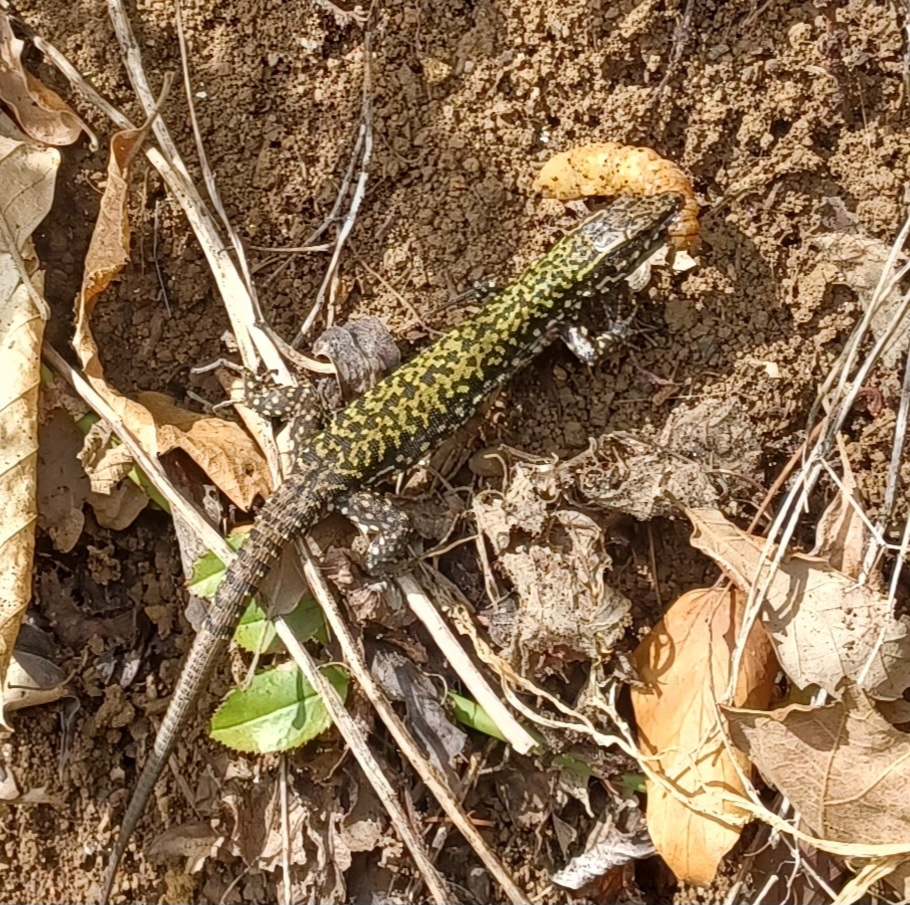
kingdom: Animalia
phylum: Chordata
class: Squamata
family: Lacertidae
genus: Podarcis
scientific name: Podarcis muralis
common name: Common wall lizard
